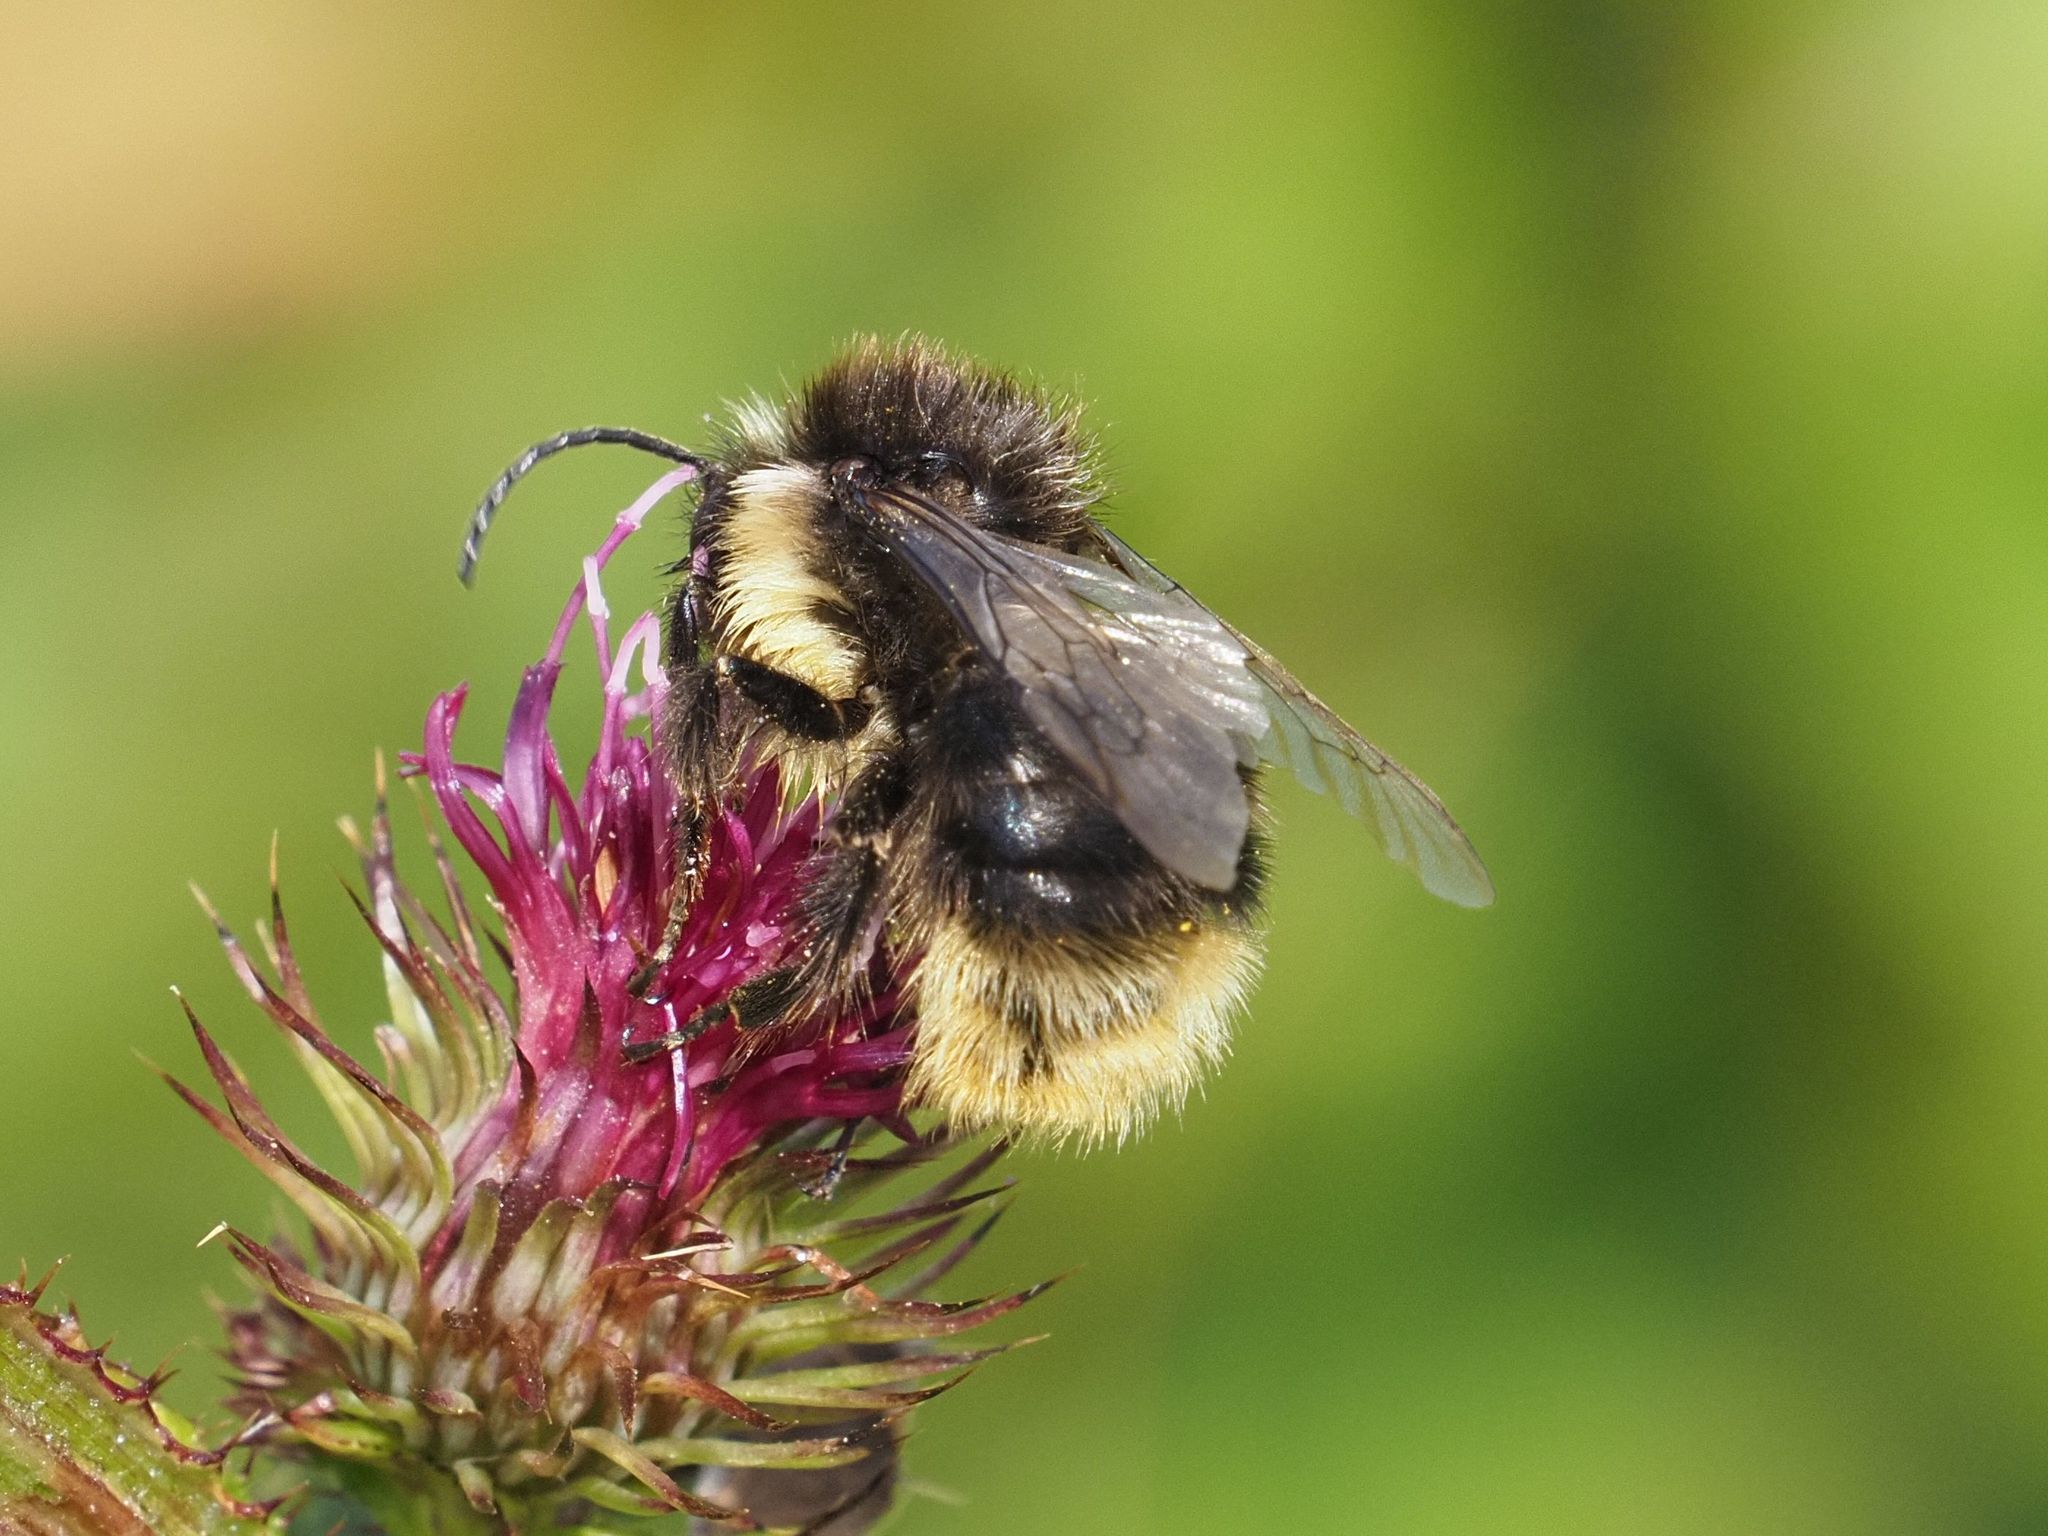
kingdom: Animalia
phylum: Arthropoda
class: Insecta
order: Hymenoptera
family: Apidae
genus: Bombus
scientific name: Bombus soroeensis
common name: Broken-belted humble-bee
